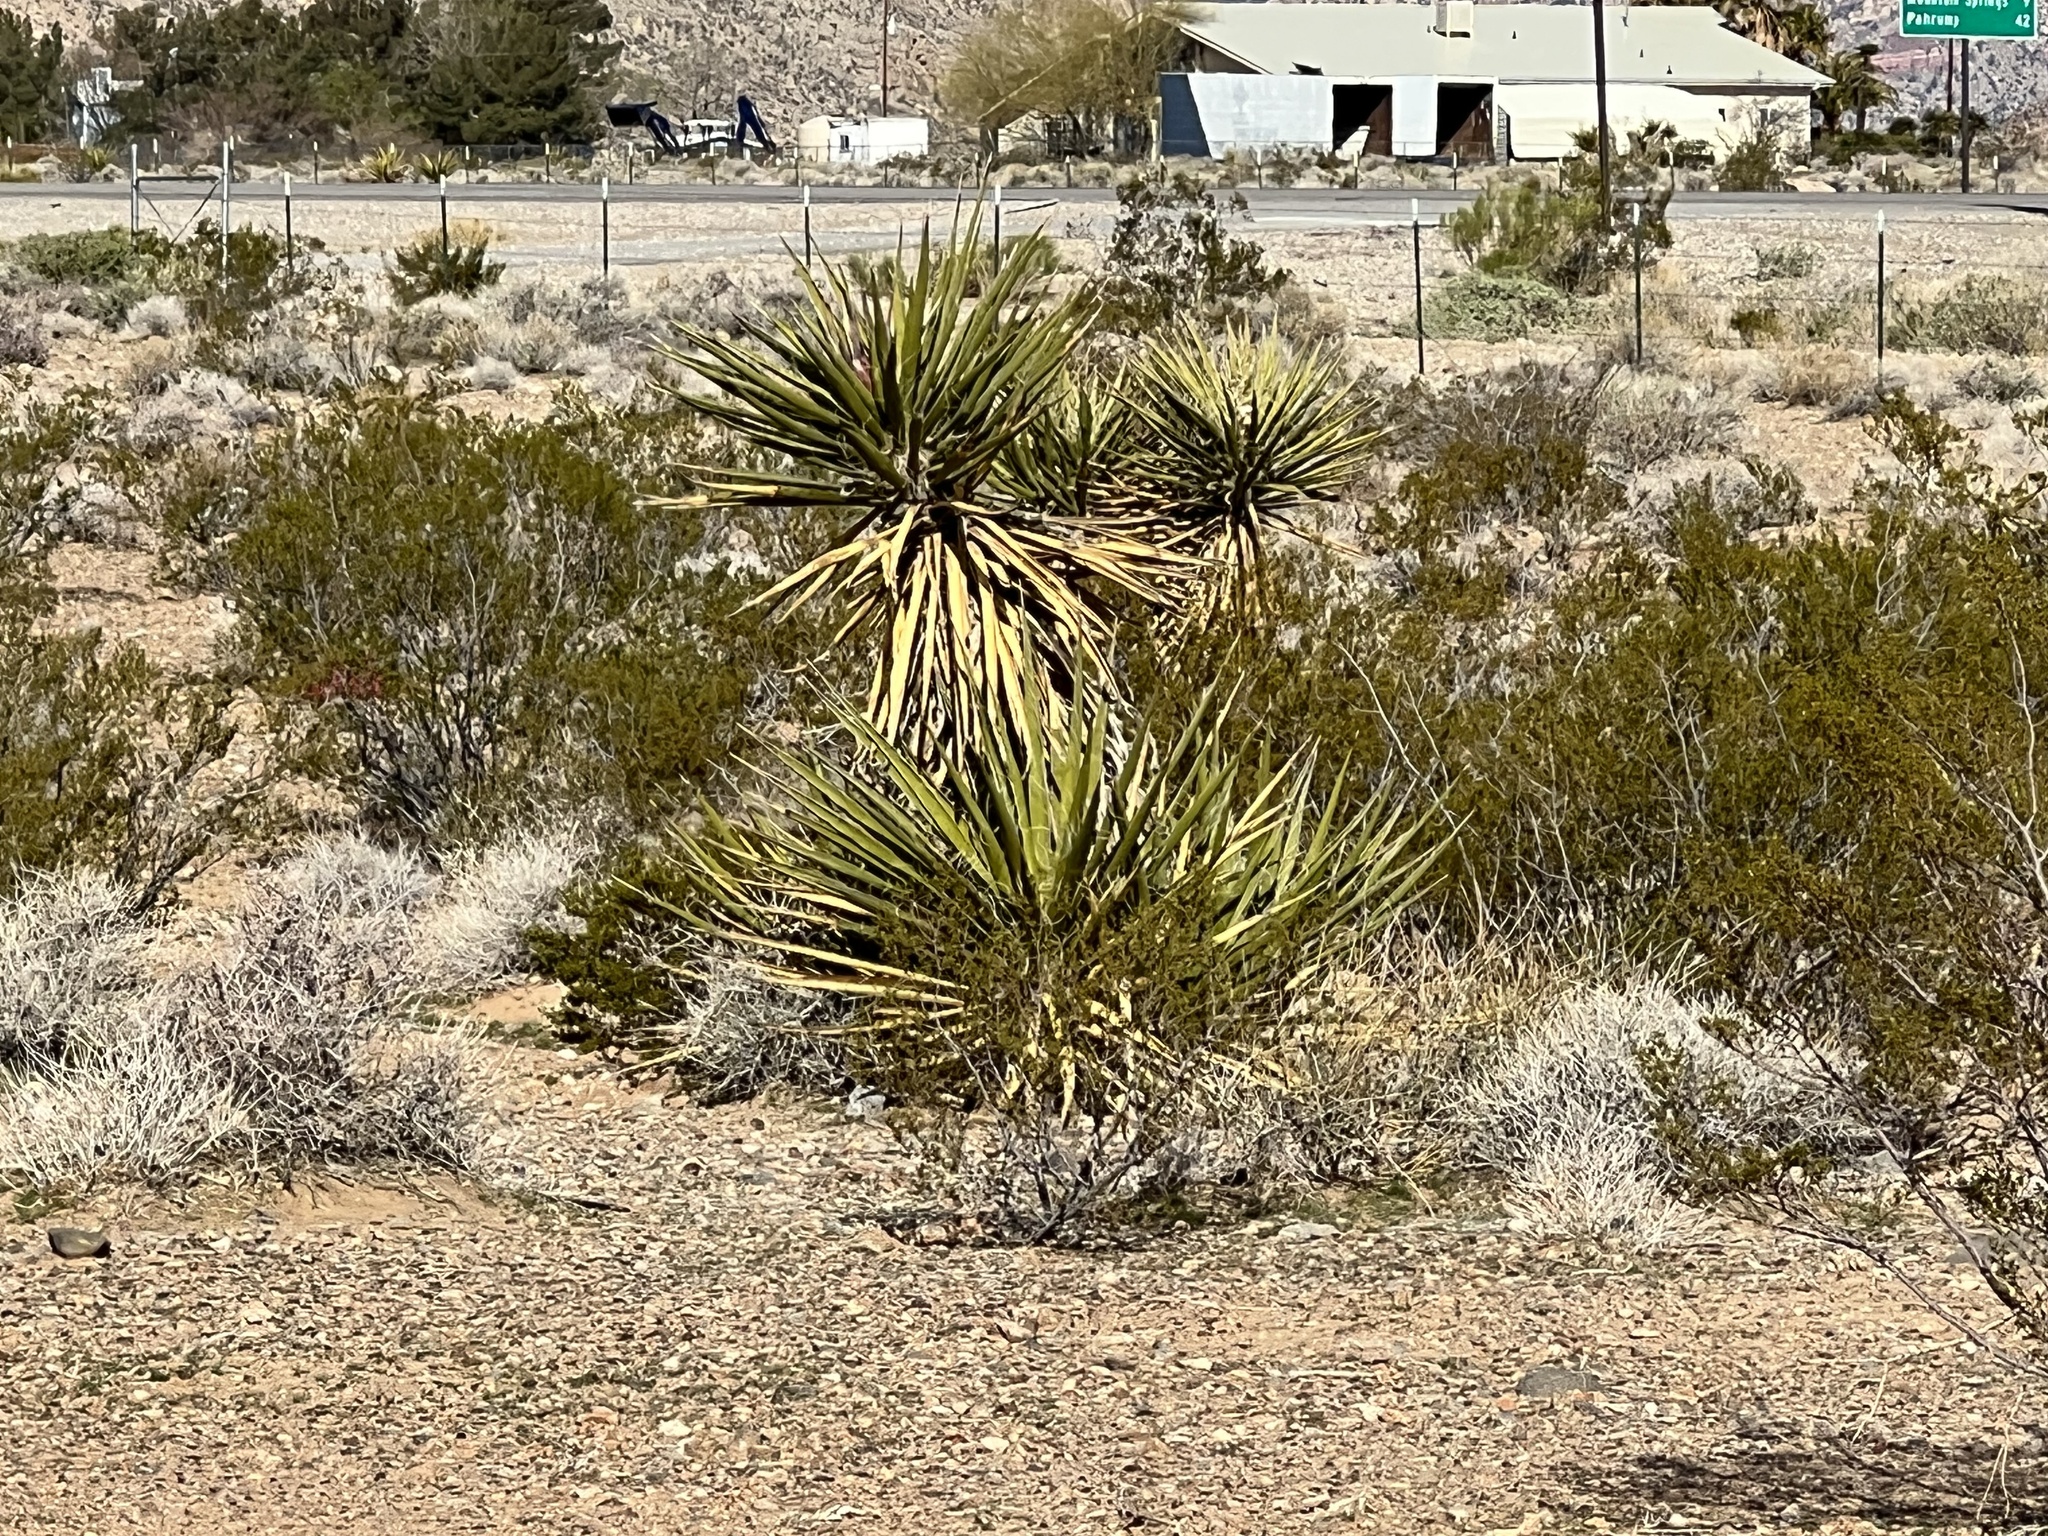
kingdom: Plantae
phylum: Tracheophyta
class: Liliopsida
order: Asparagales
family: Asparagaceae
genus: Yucca
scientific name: Yucca schidigera
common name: Mojave yucca
